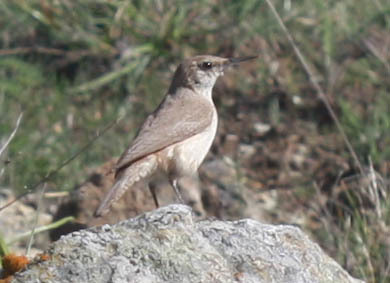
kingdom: Animalia
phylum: Chordata
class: Aves
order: Passeriformes
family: Troglodytidae
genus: Salpinctes
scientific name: Salpinctes obsoletus
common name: Rock wren
